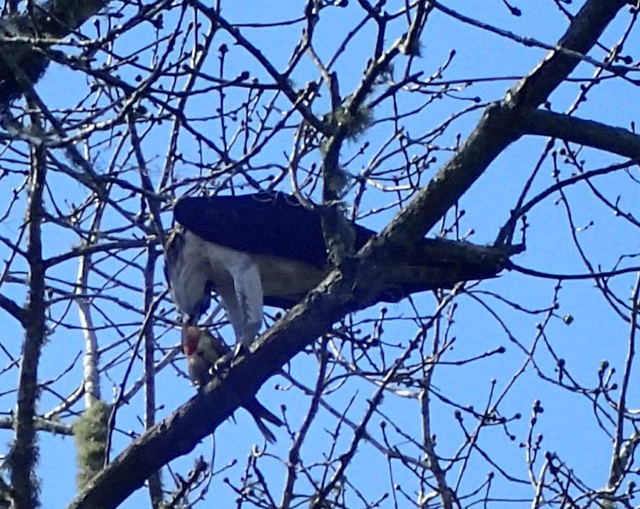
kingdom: Animalia
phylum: Chordata
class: Aves
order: Accipitriformes
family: Pandionidae
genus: Pandion
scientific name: Pandion haliaetus
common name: Osprey
